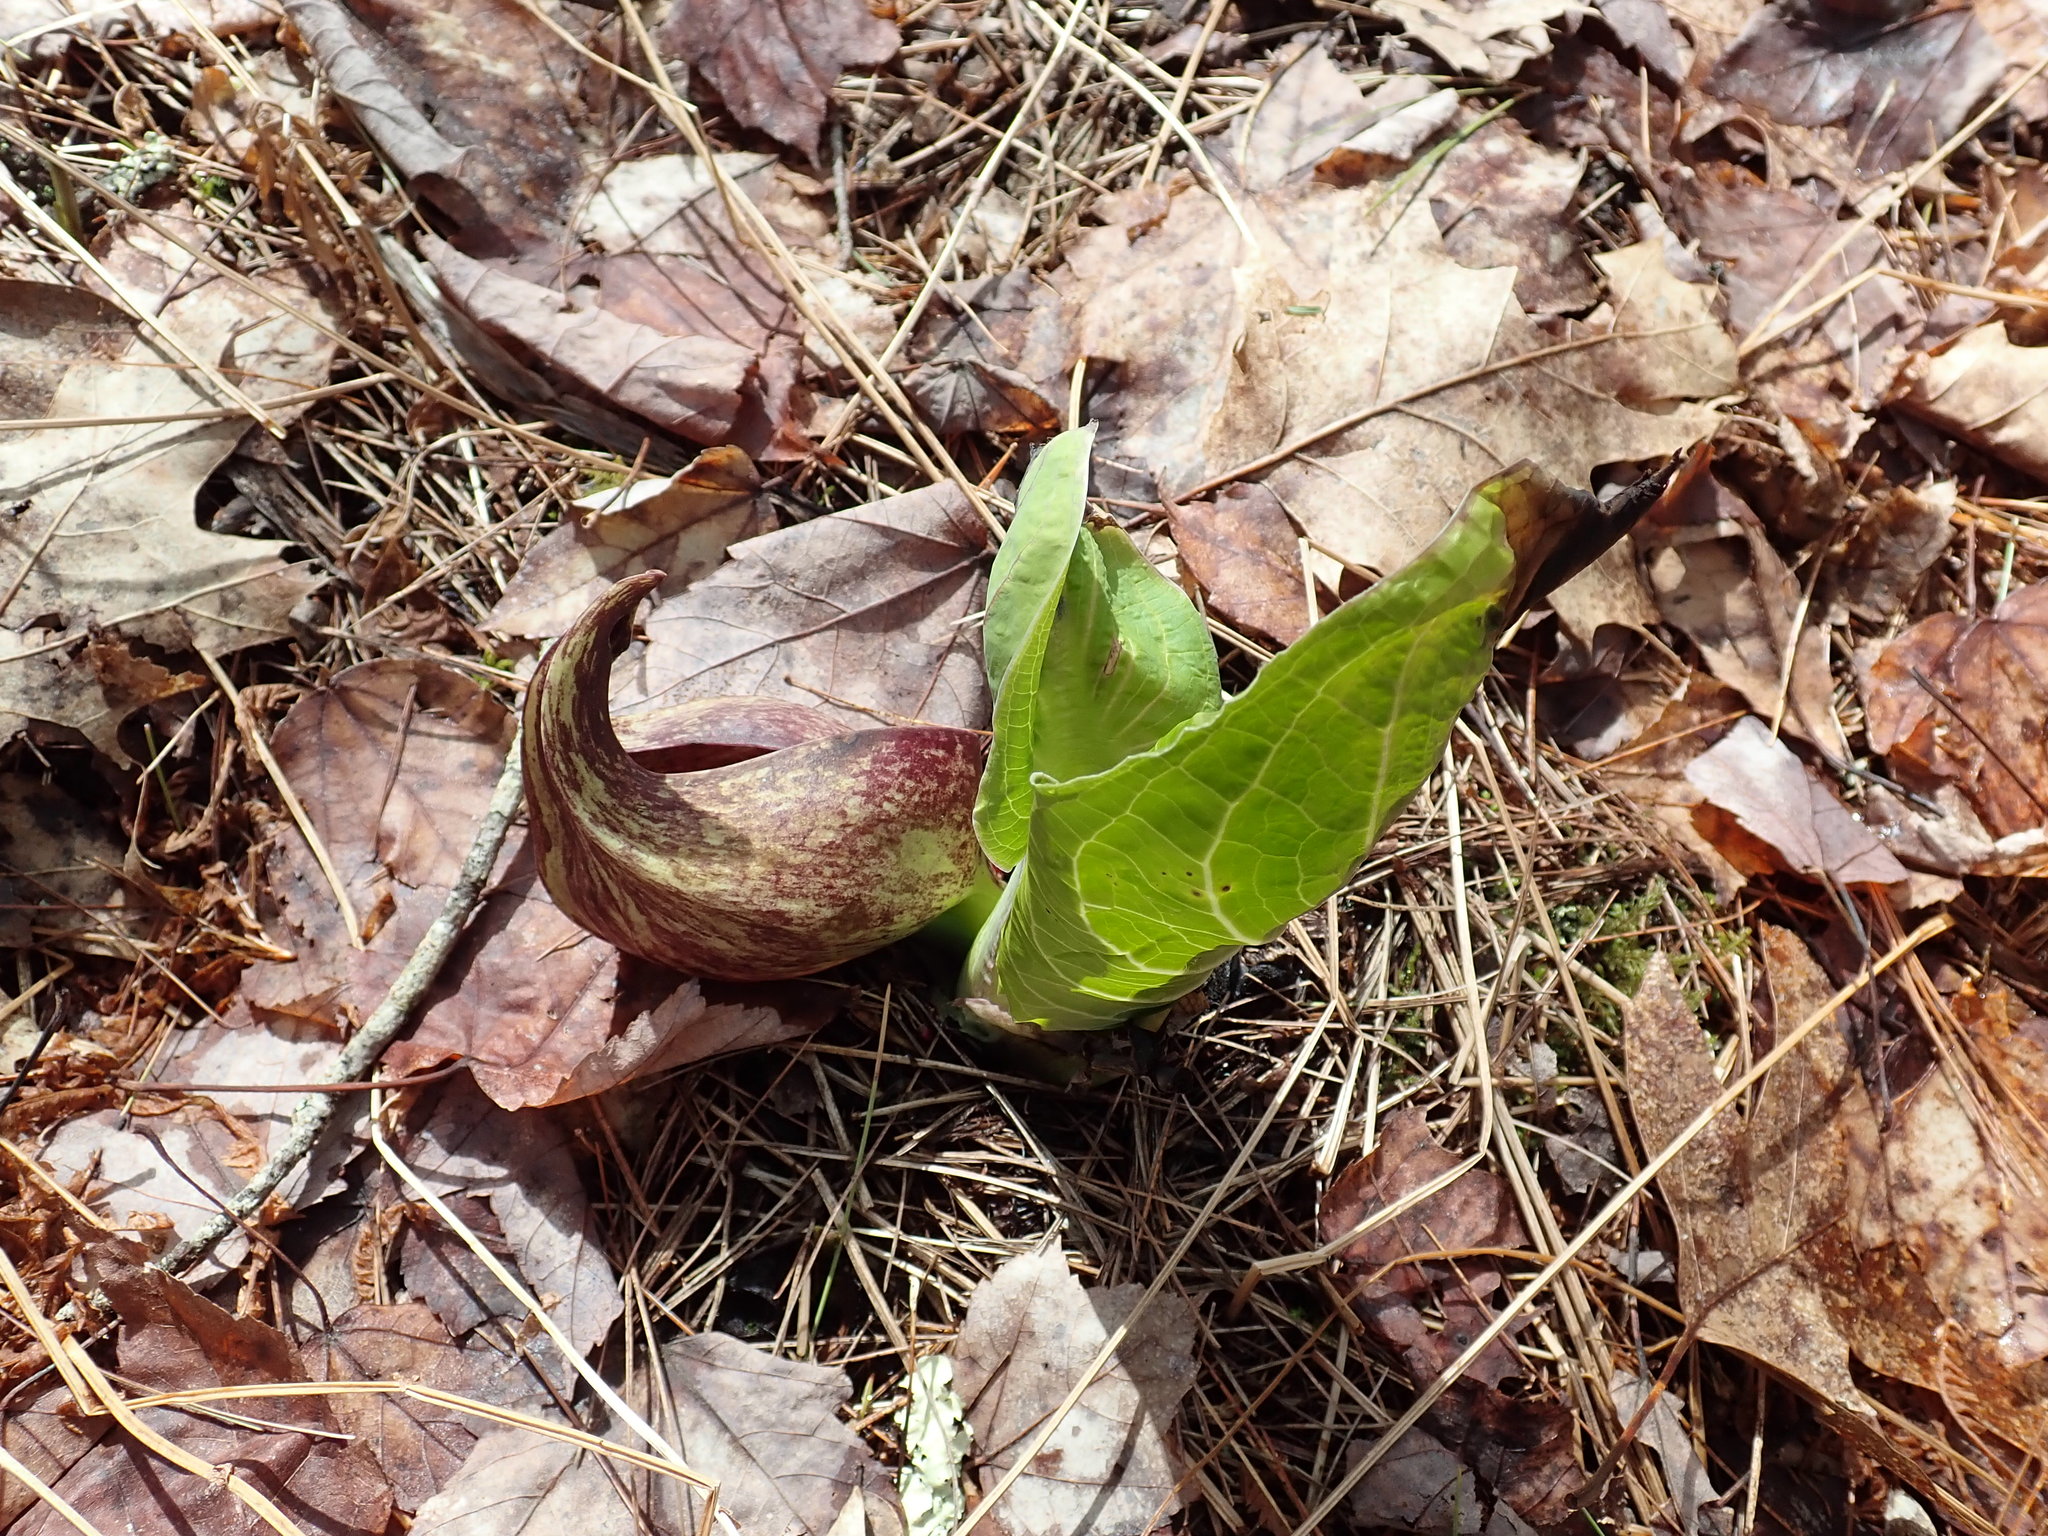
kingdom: Plantae
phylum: Tracheophyta
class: Liliopsida
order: Alismatales
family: Araceae
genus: Symplocarpus
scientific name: Symplocarpus foetidus
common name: Eastern skunk cabbage
